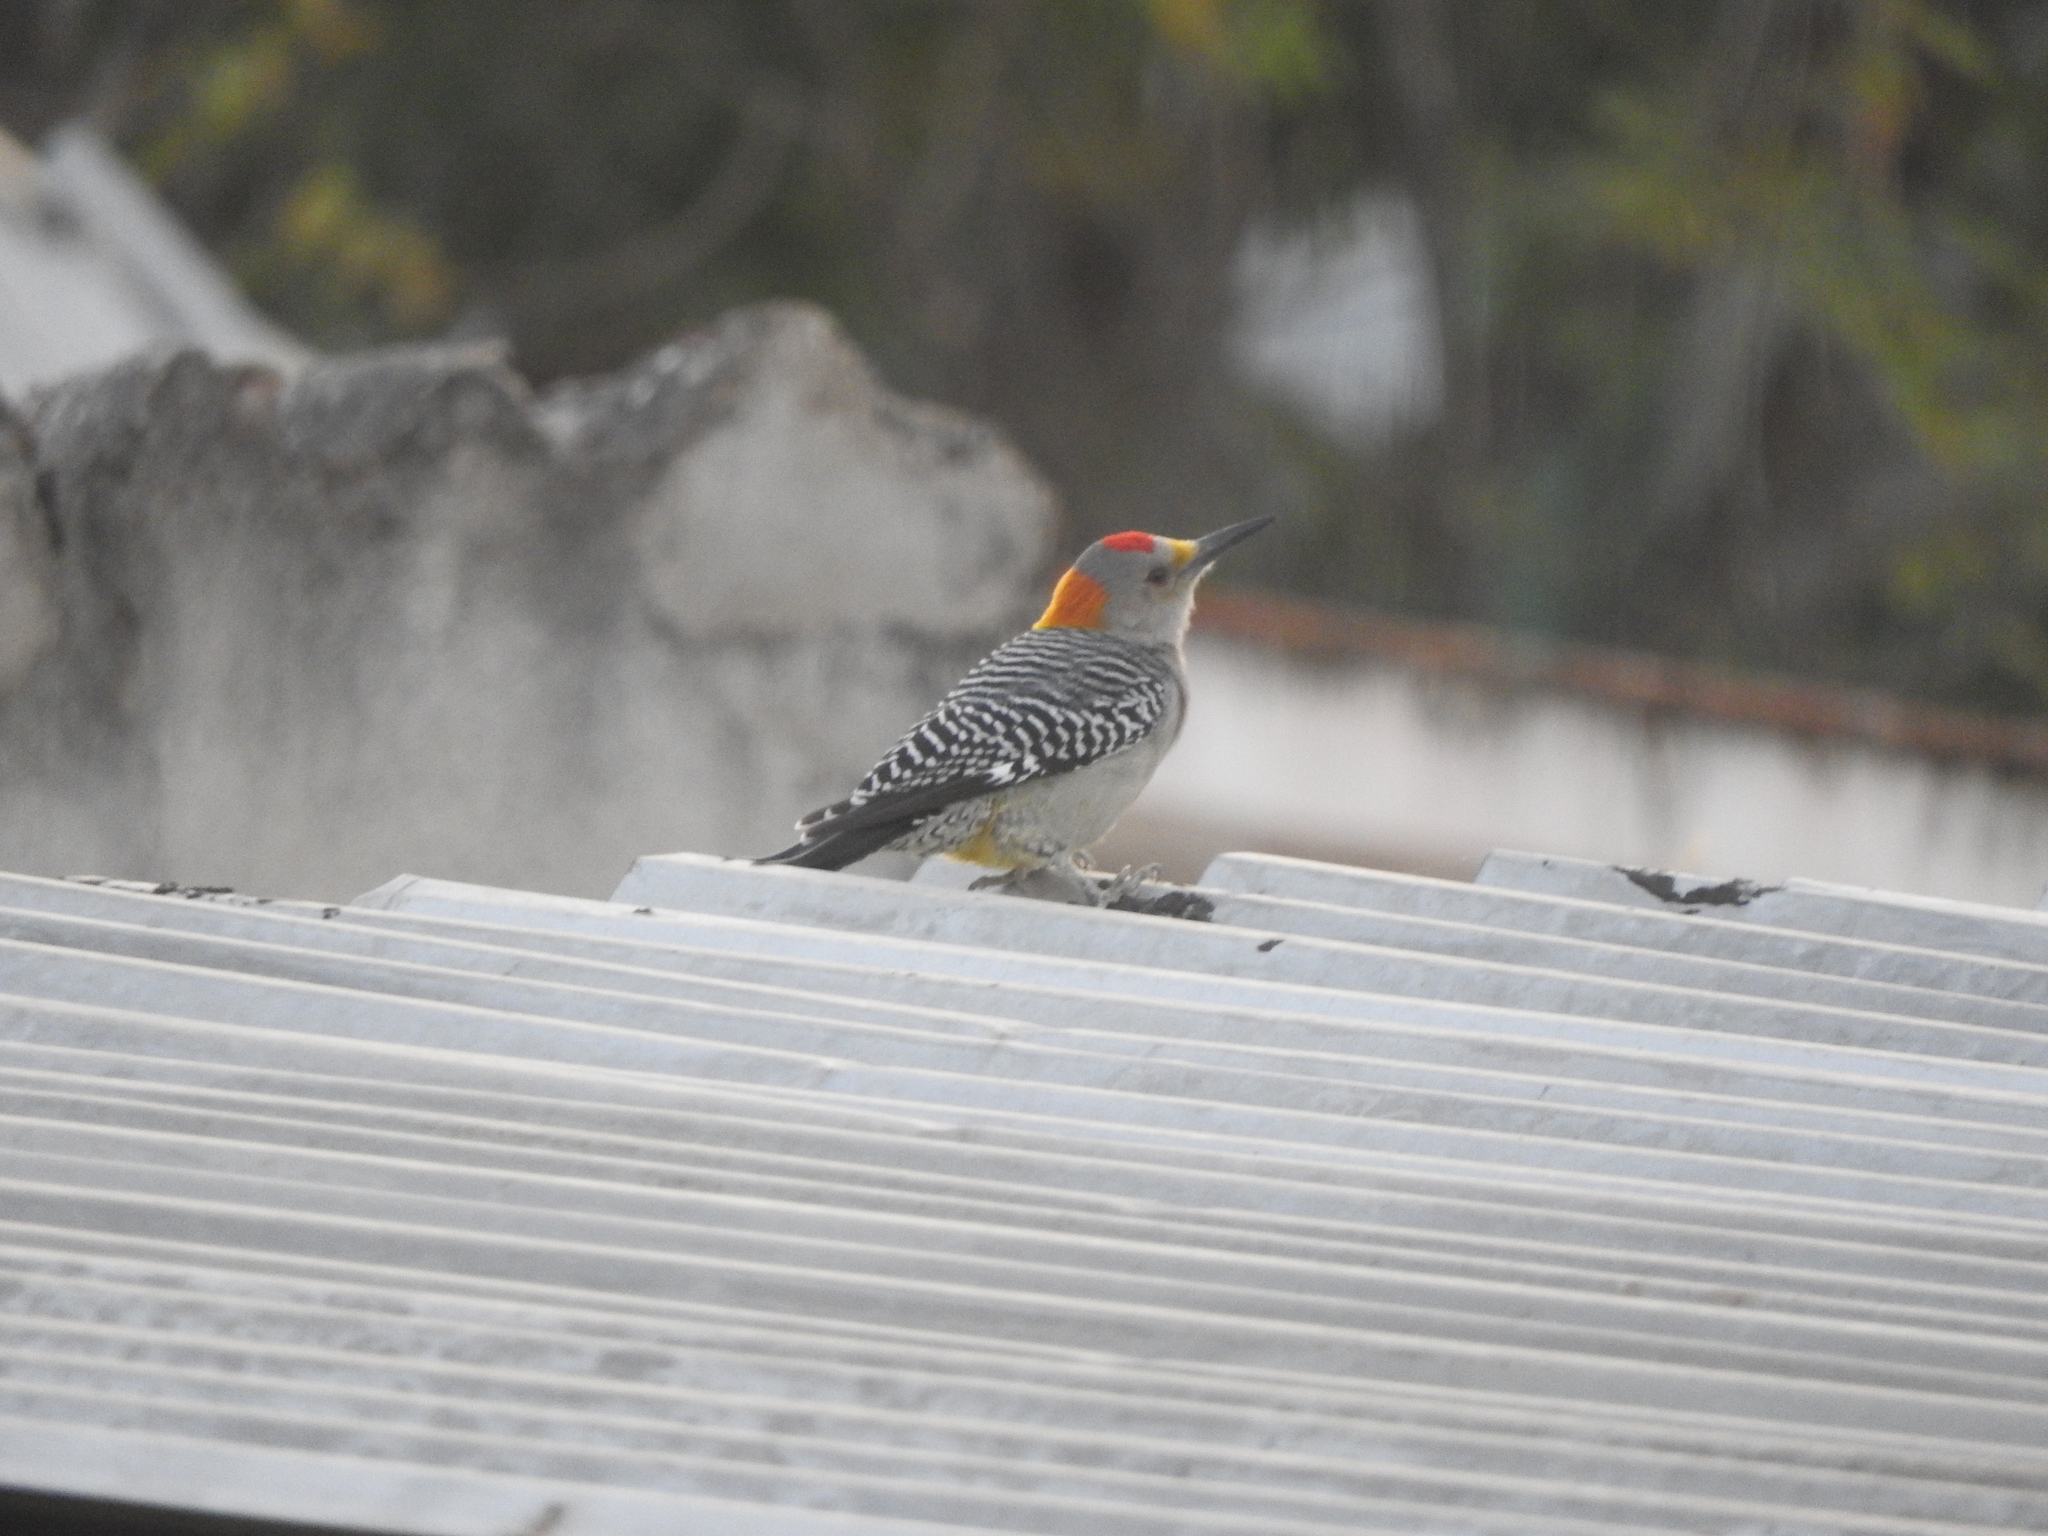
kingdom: Animalia
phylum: Chordata
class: Aves
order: Piciformes
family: Picidae
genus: Melanerpes
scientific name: Melanerpes aurifrons
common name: Golden-fronted woodpecker
